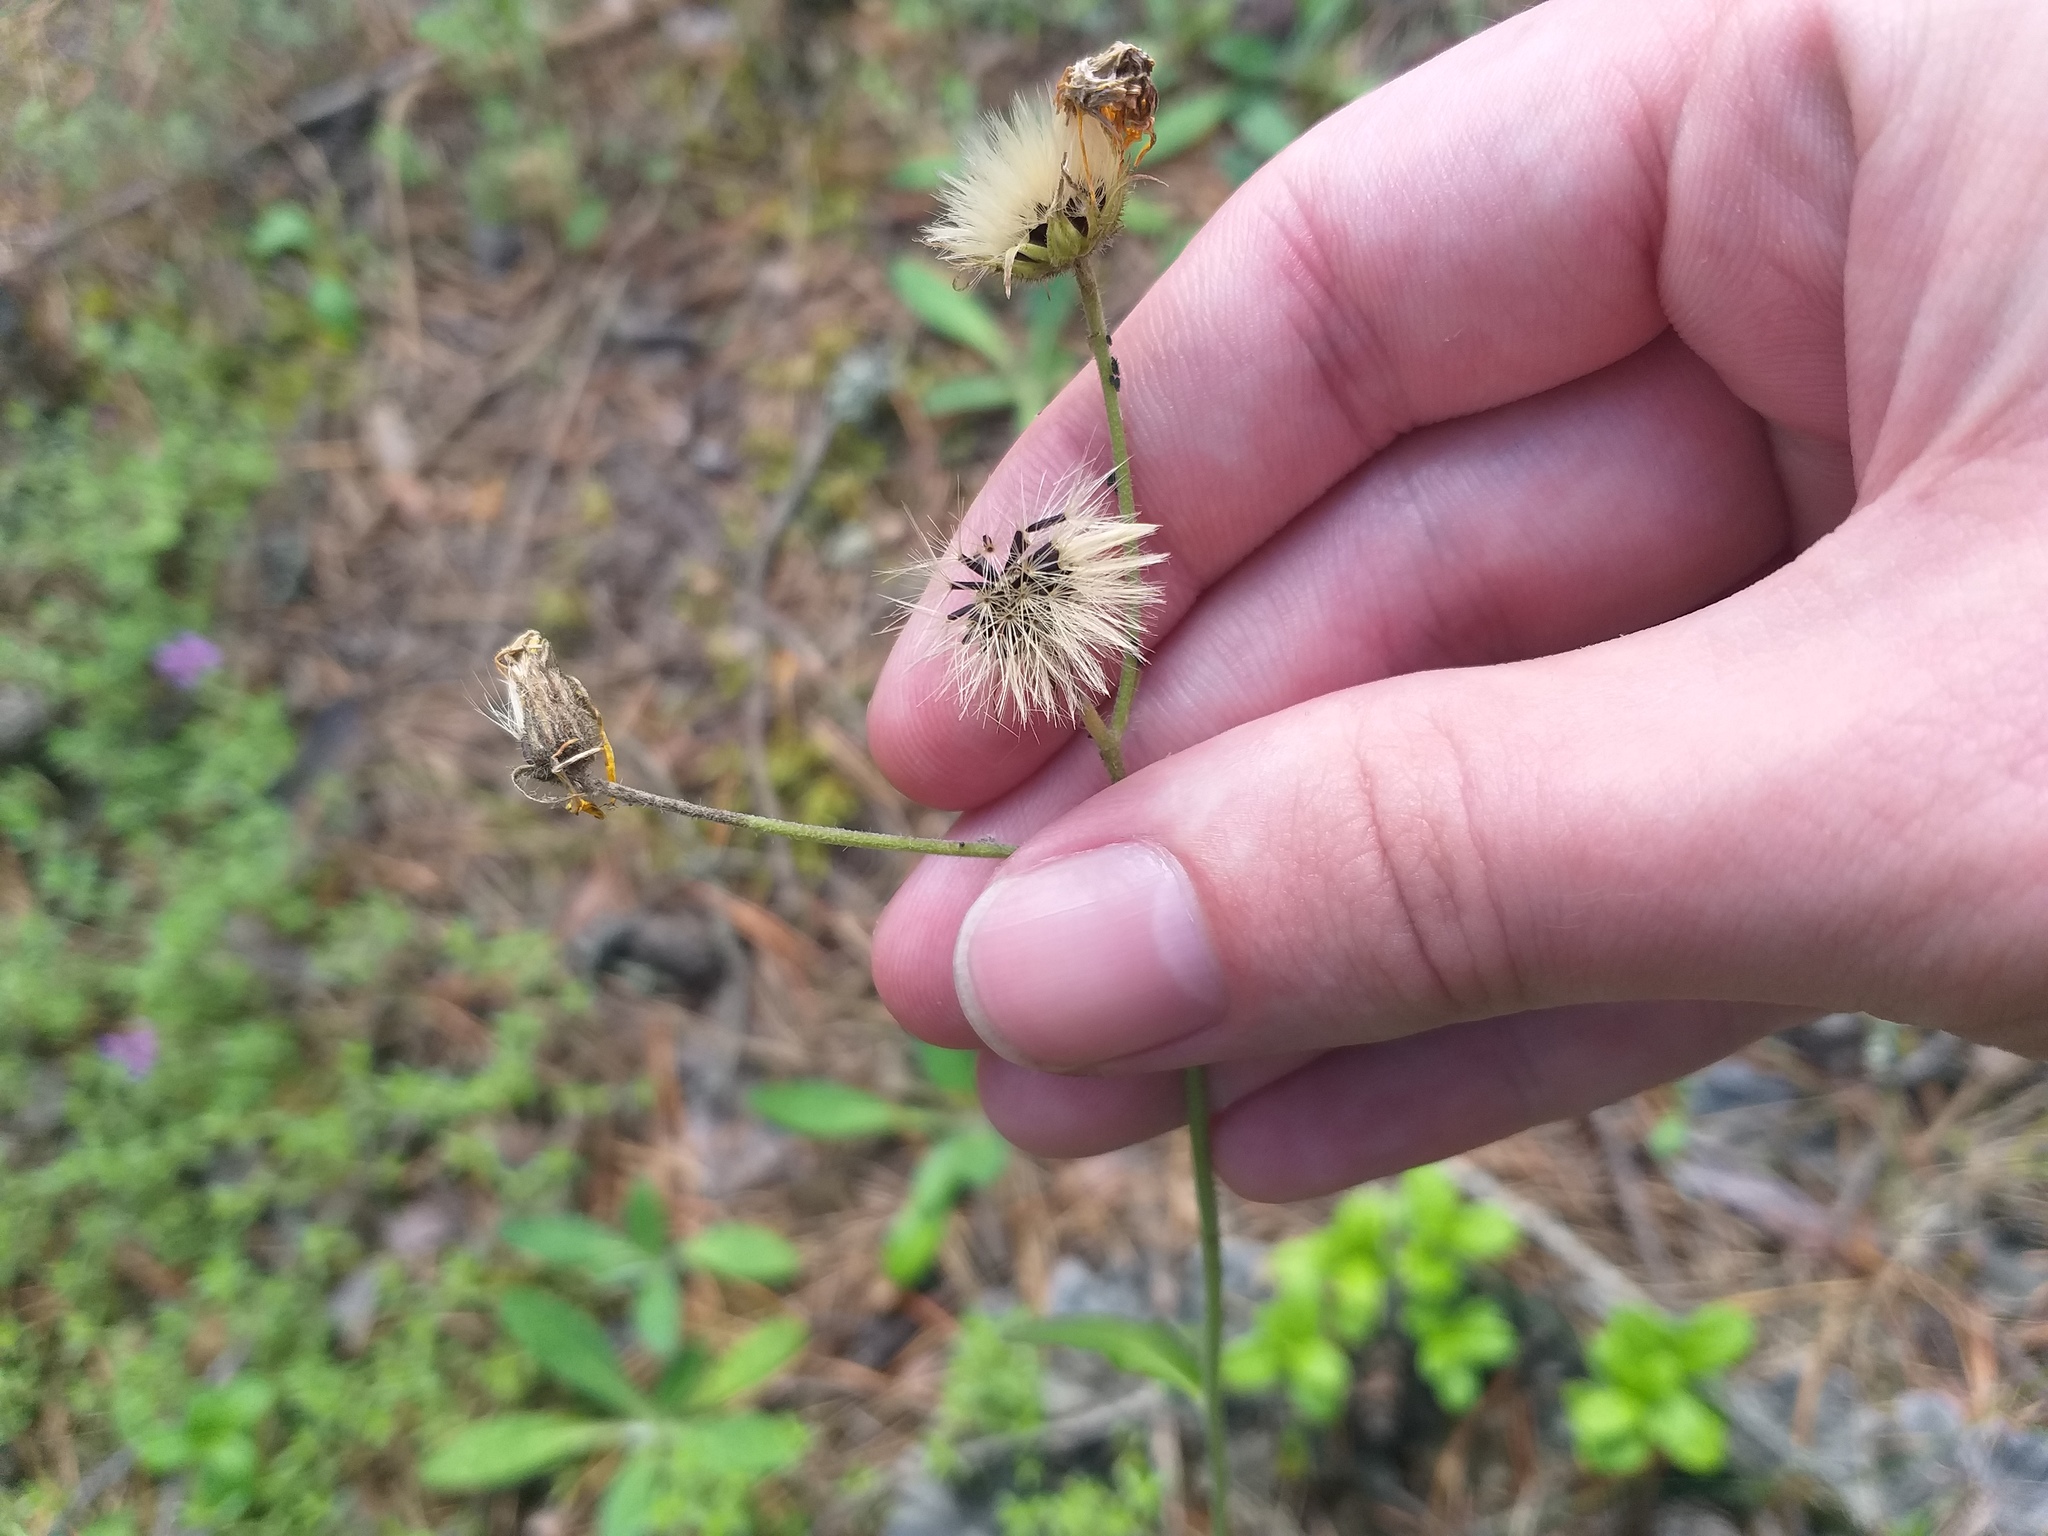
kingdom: Plantae
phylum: Tracheophyta
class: Magnoliopsida
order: Asterales
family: Asteraceae
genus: Hieracium
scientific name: Hieracium murorum
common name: Wall hawkweed
